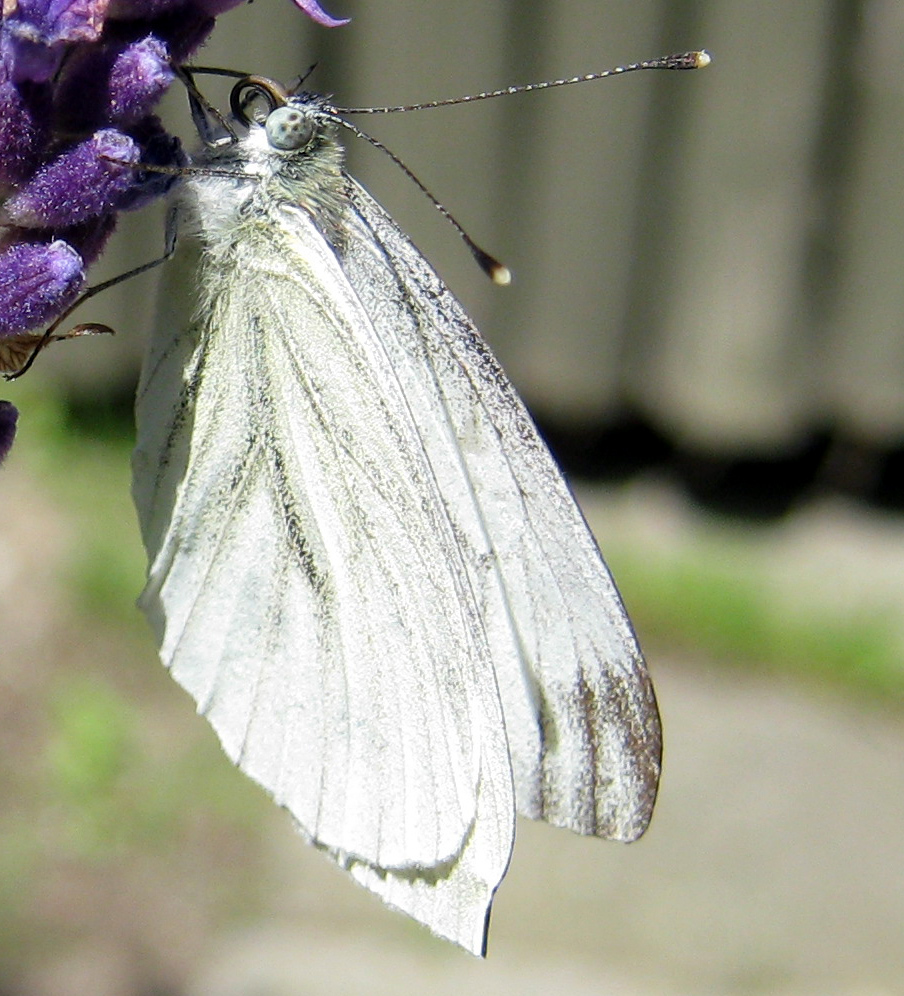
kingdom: Animalia
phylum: Arthropoda
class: Insecta
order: Lepidoptera
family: Pieridae
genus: Pieris
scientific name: Pieris napi
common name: Green-veined white
